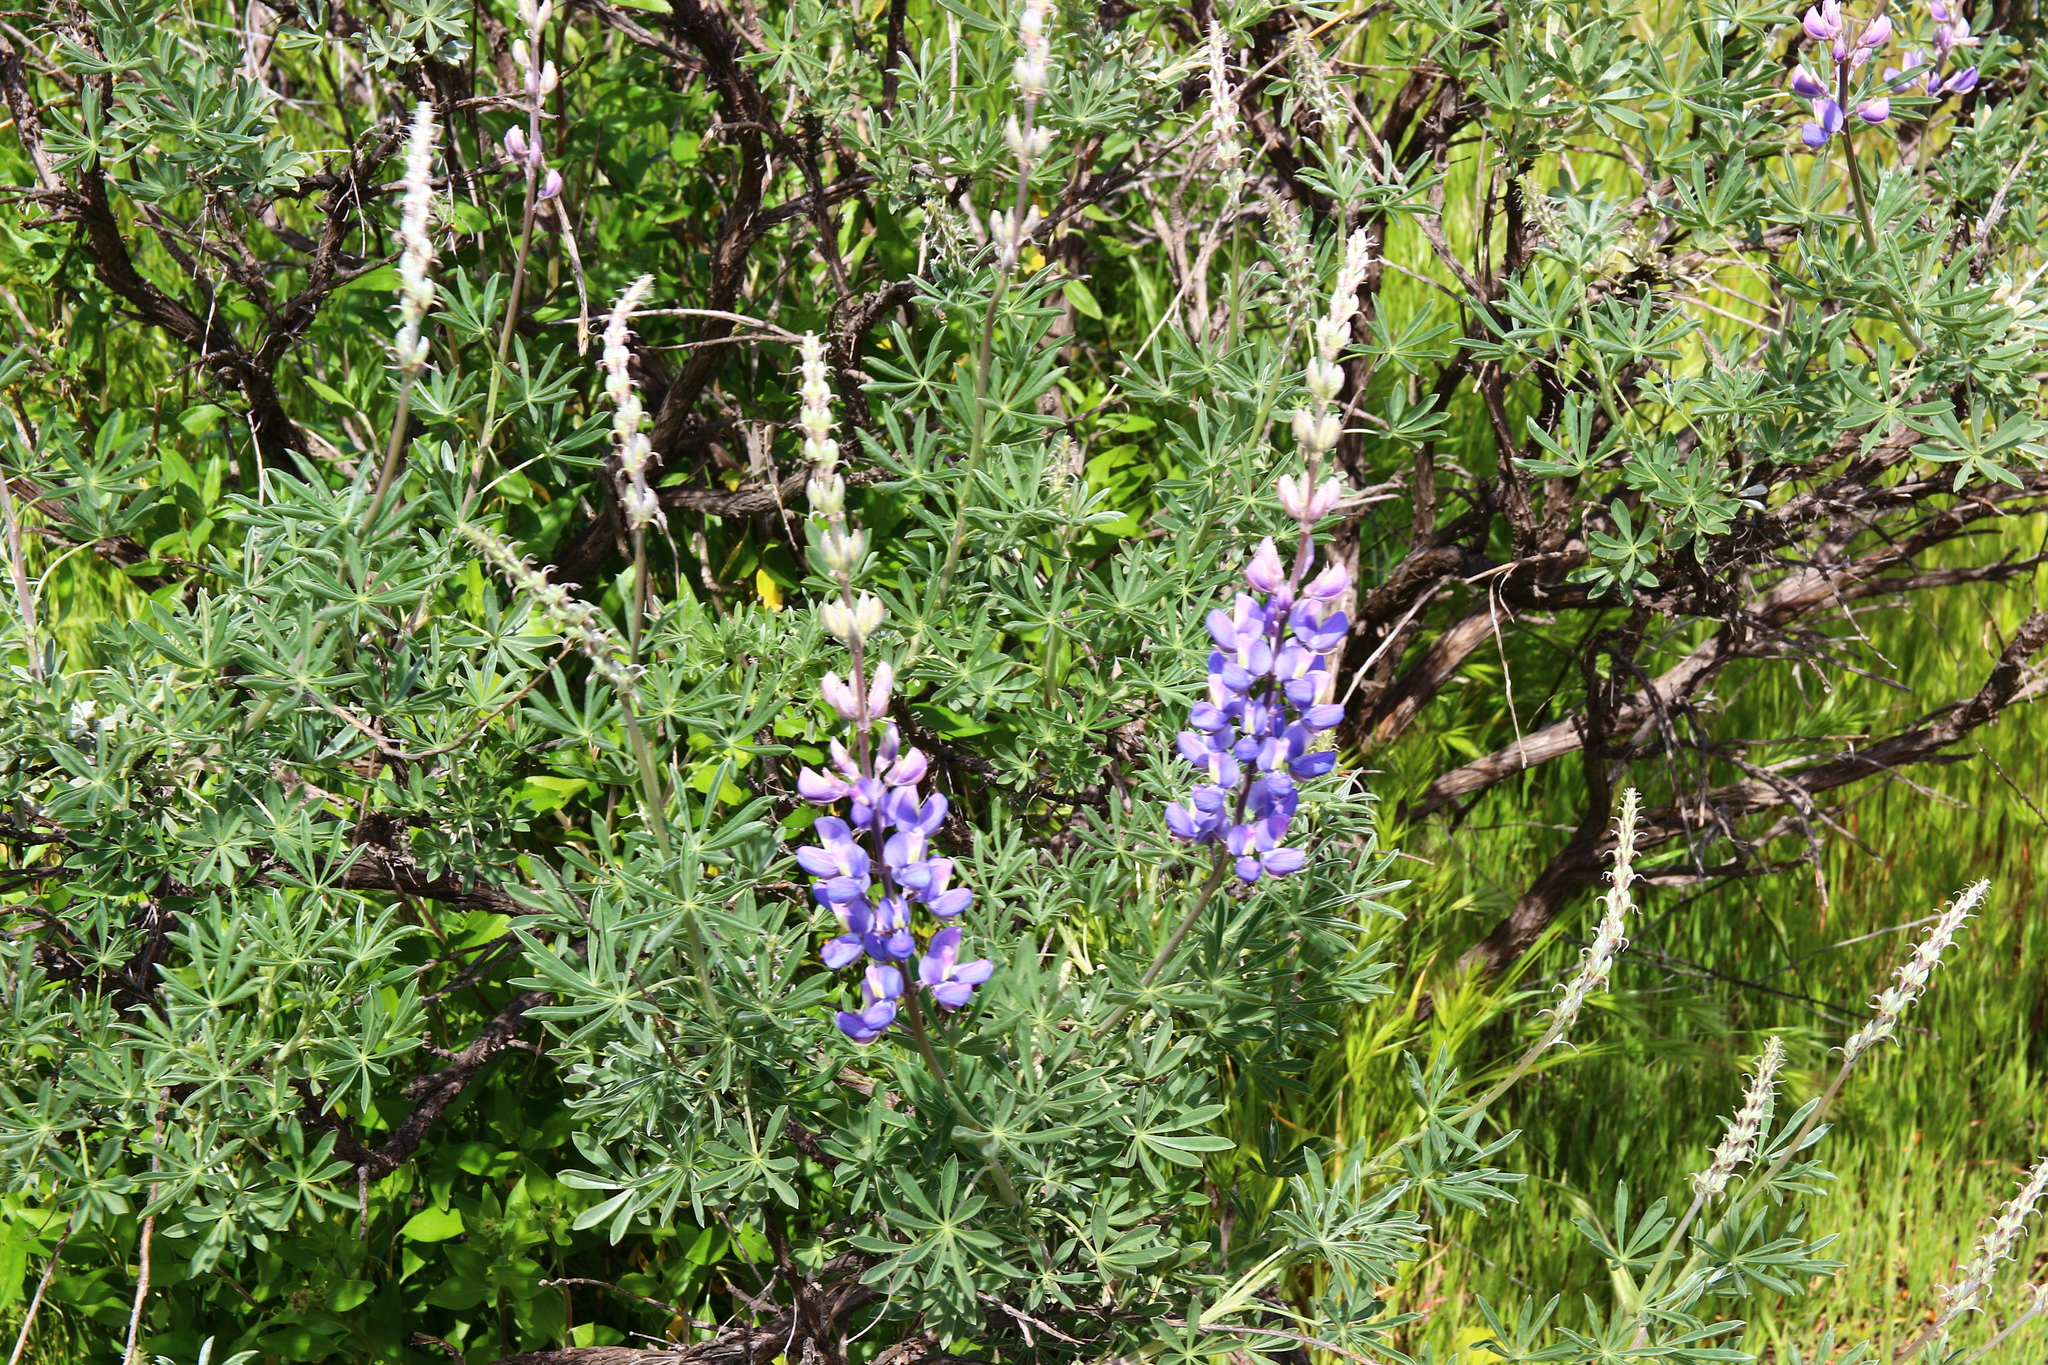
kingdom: Plantae
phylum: Tracheophyta
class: Magnoliopsida
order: Fabales
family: Fabaceae
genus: Lupinus
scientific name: Lupinus albifrons
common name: Foothill lupine
